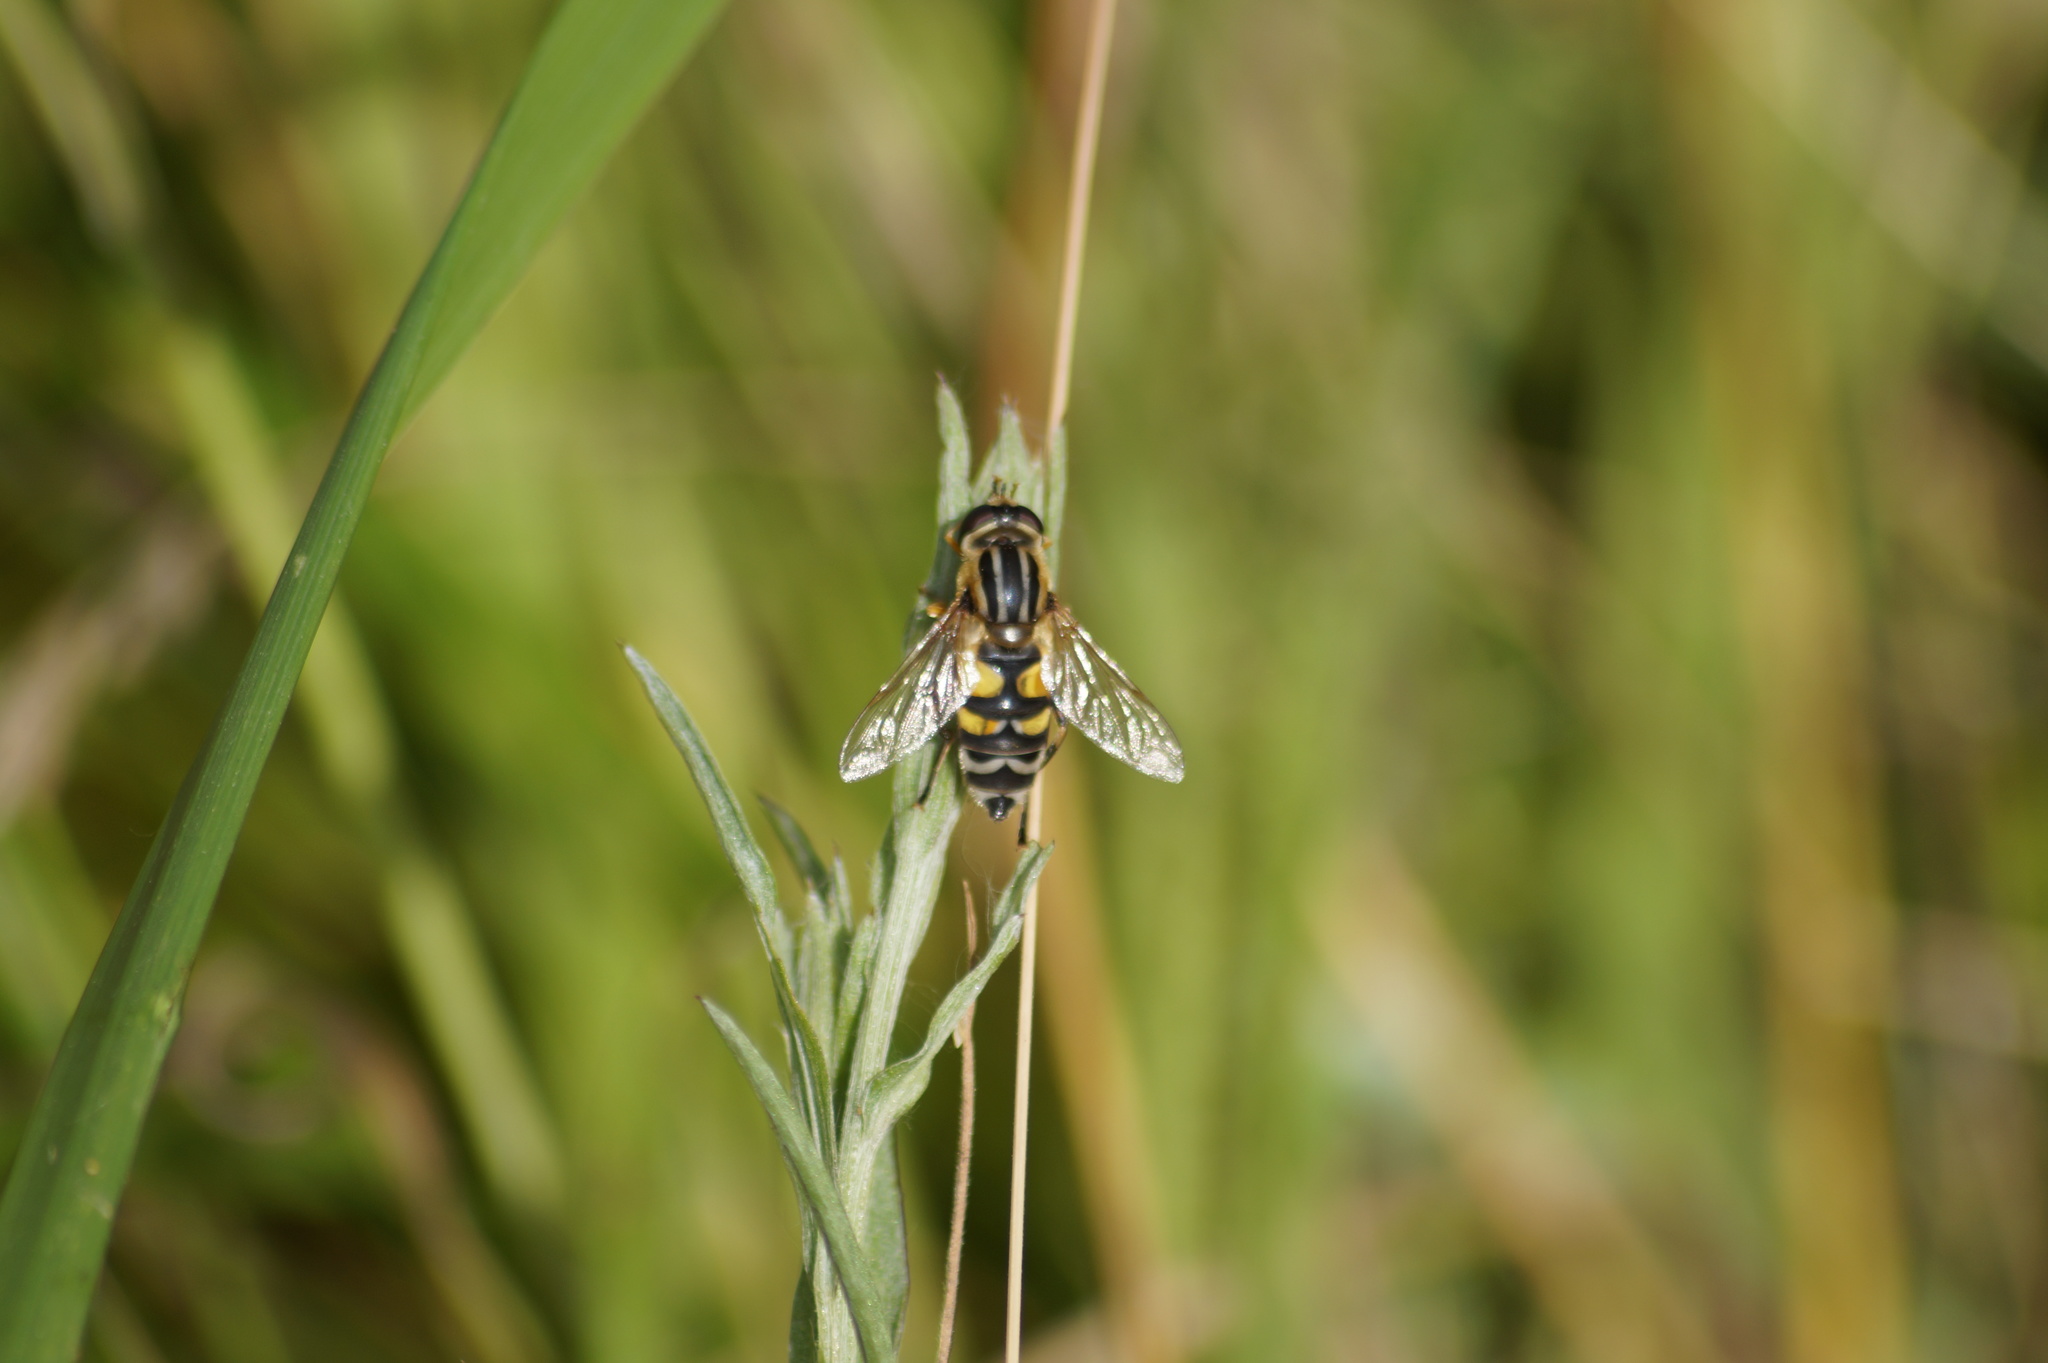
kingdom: Animalia
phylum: Arthropoda
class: Insecta
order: Diptera
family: Syrphidae
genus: Helophilus
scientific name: Helophilus trivittatus
